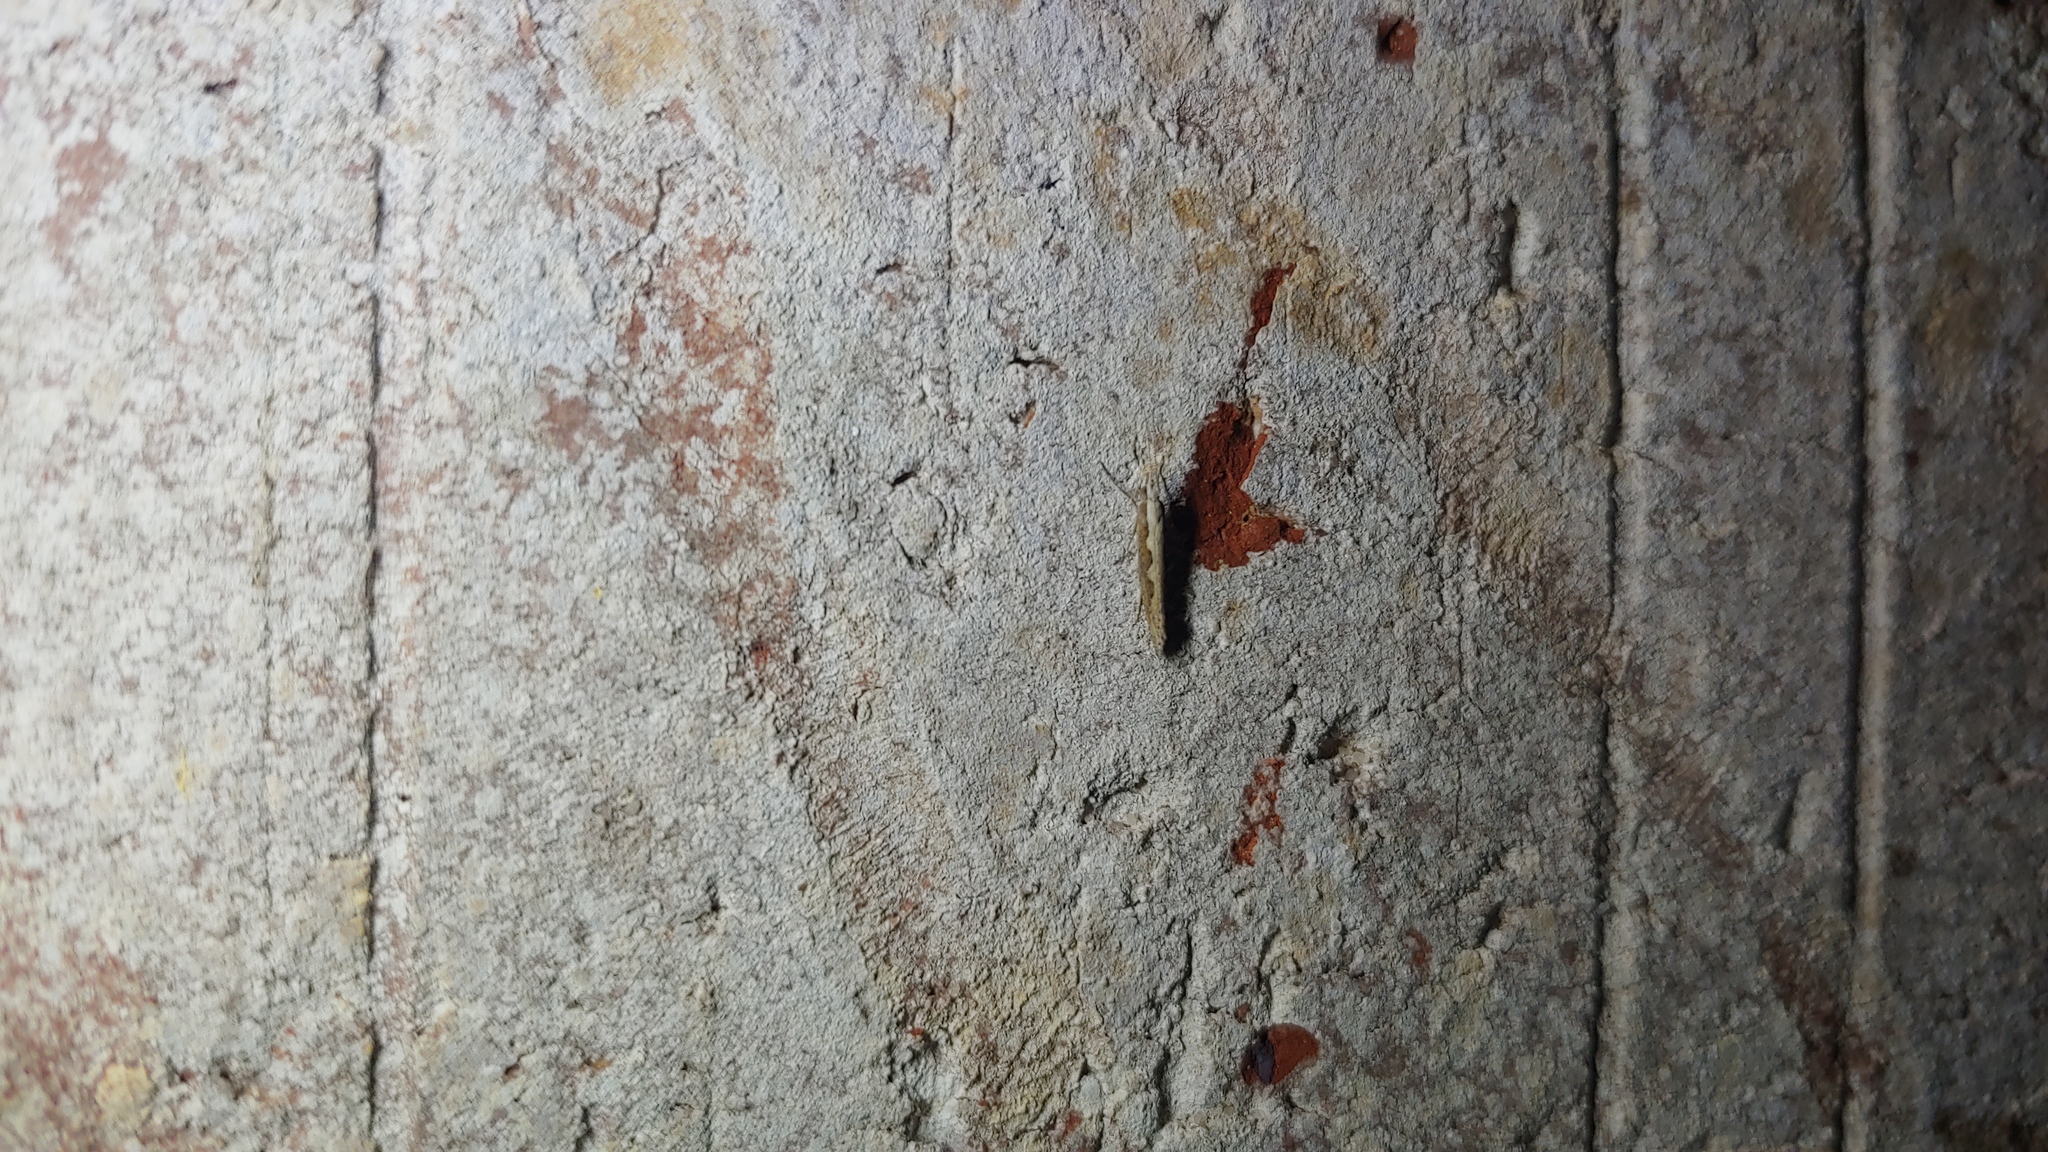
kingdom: Animalia
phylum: Arthropoda
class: Insecta
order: Lepidoptera
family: Plutellidae
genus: Plutella
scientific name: Plutella xylostella
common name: Diamond-back moth
